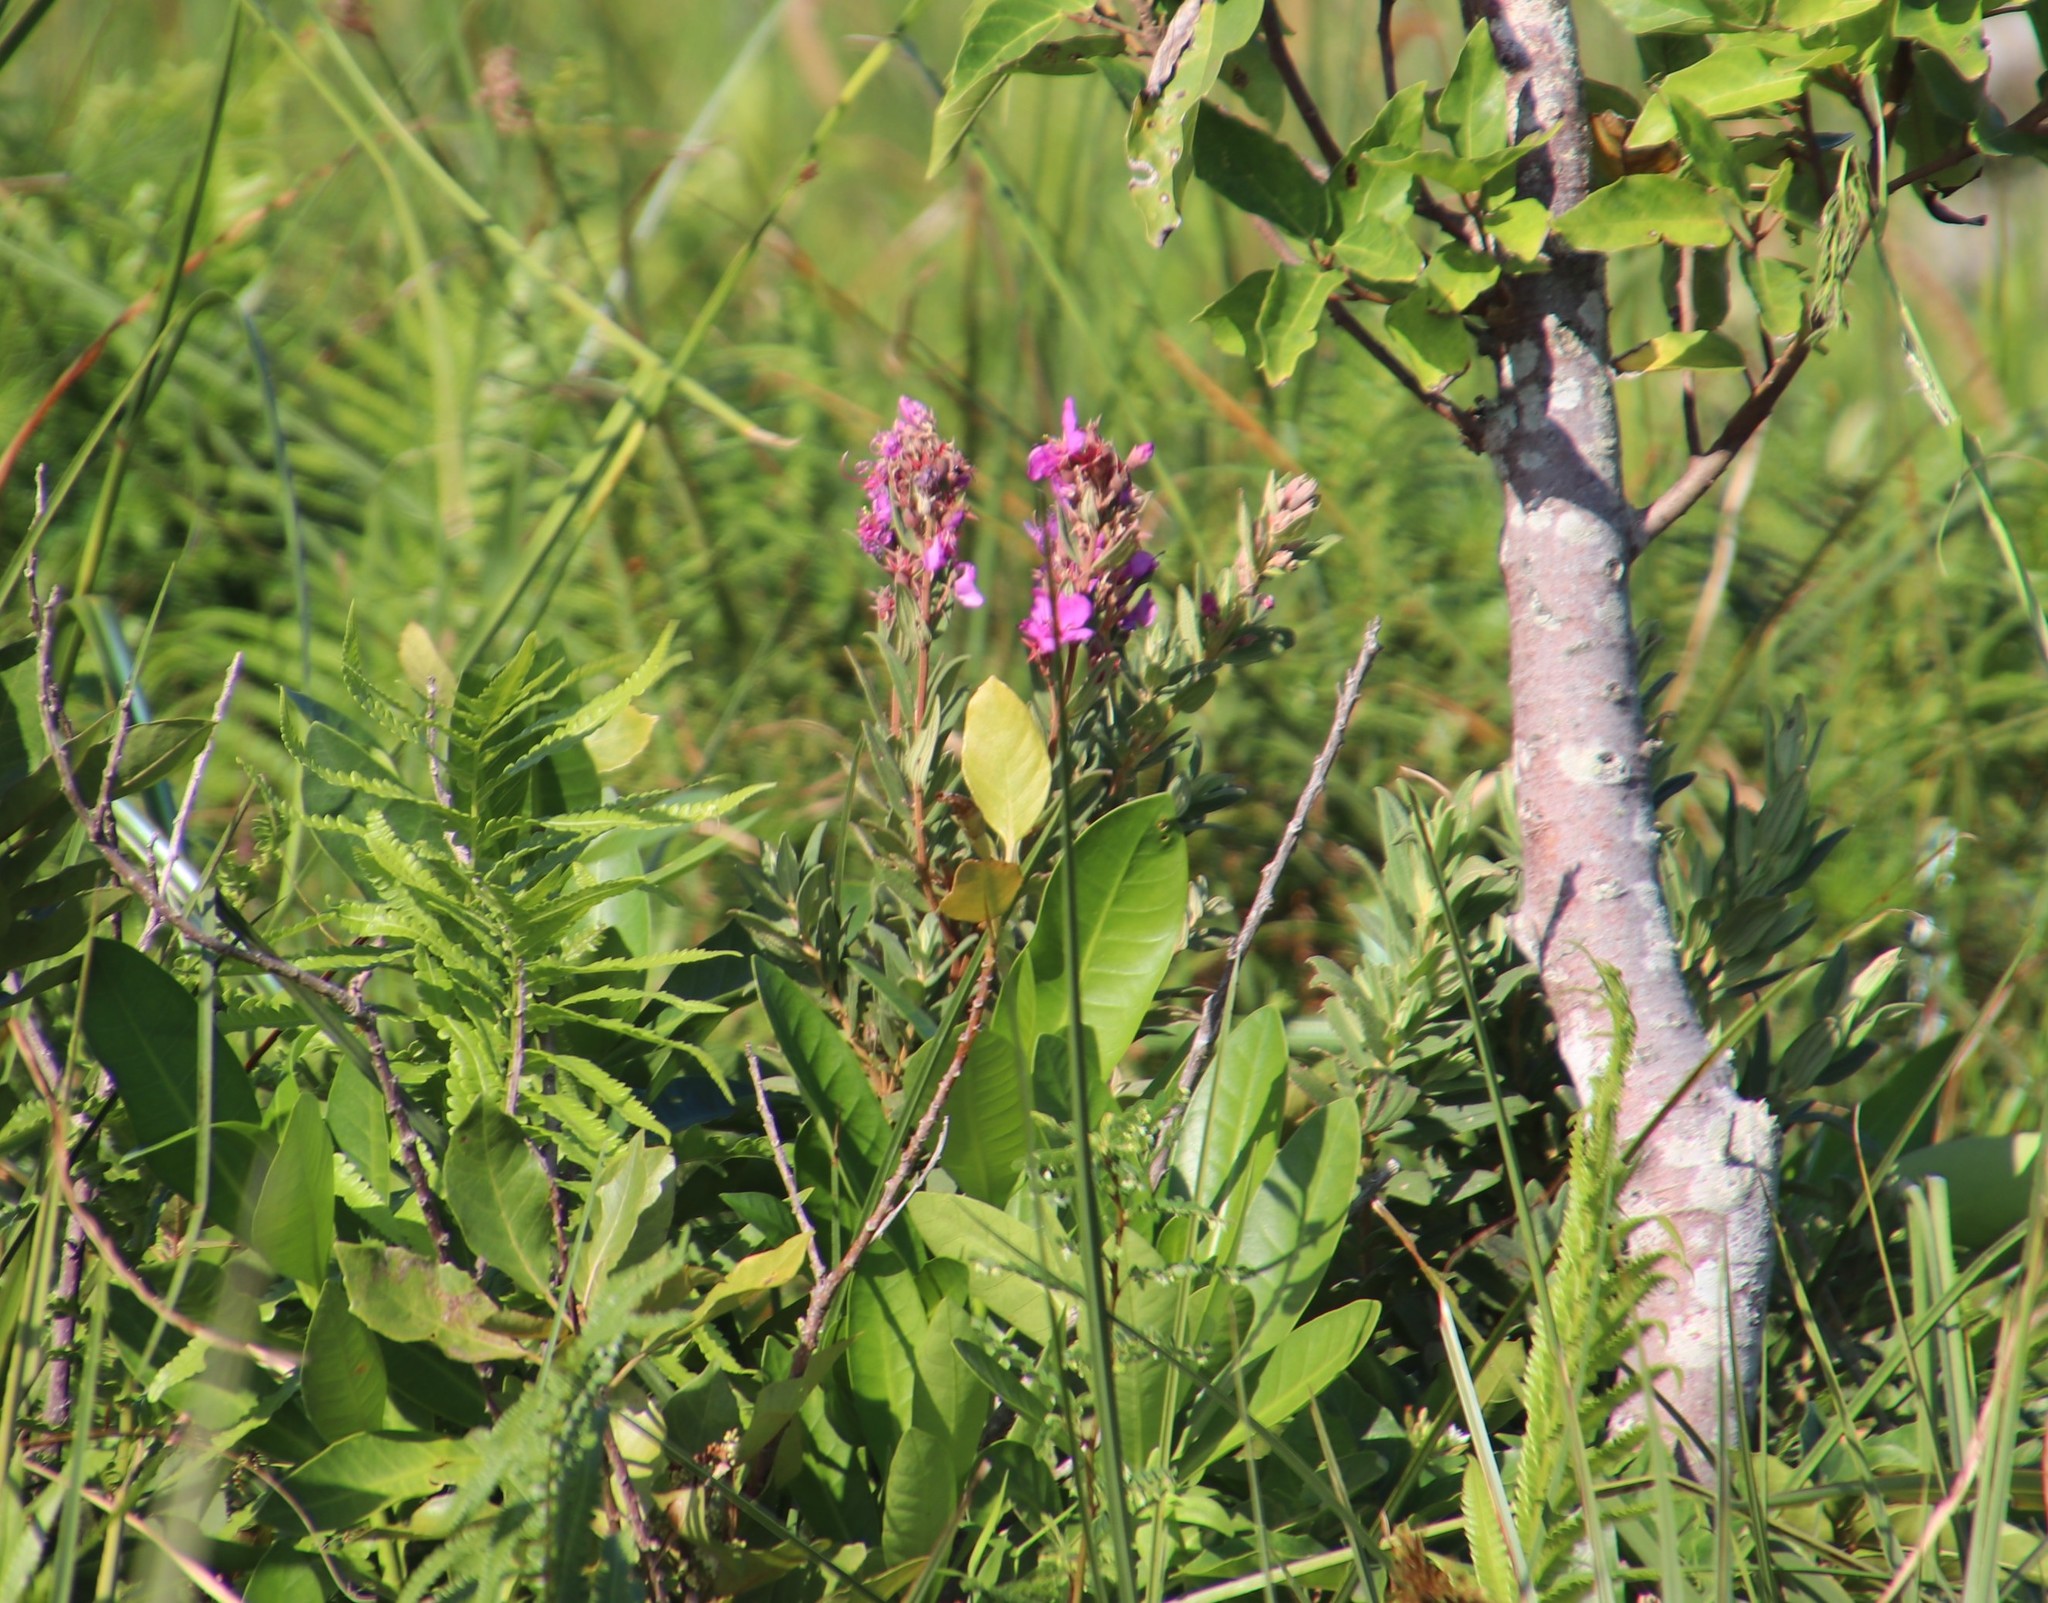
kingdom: Plantae
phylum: Tracheophyta
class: Magnoliopsida
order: Myrtales
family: Melastomataceae
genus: Argyrella
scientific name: Argyrella canescens
